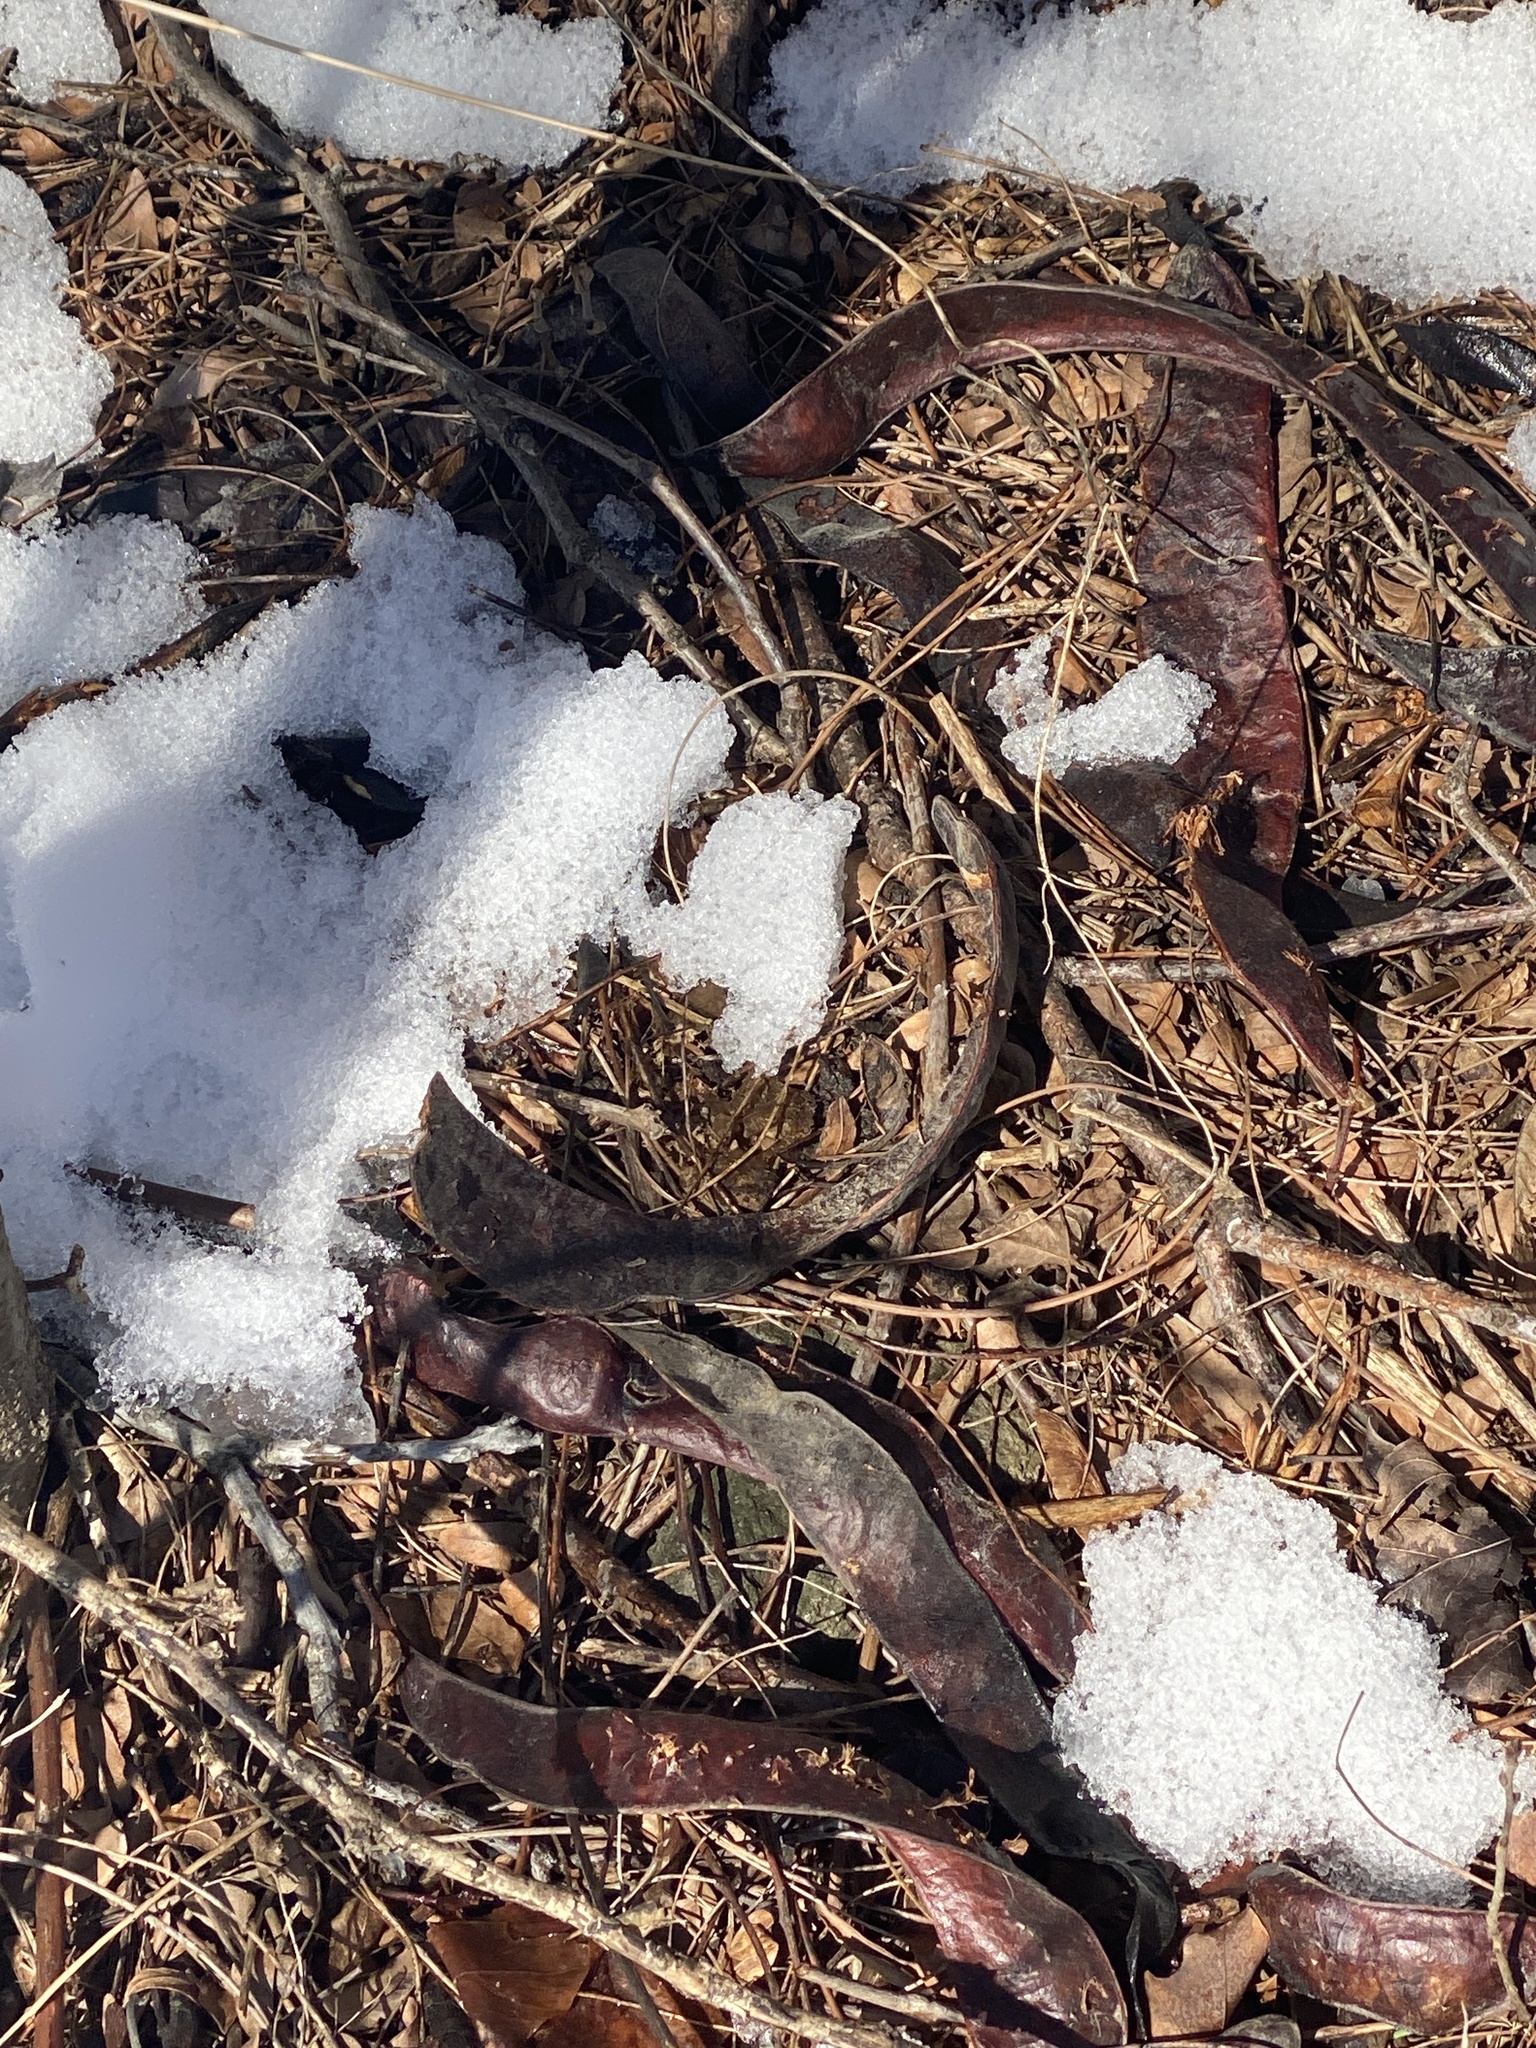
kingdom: Plantae
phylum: Tracheophyta
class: Magnoliopsida
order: Fabales
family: Fabaceae
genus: Gleditsia
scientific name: Gleditsia triacanthos
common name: Common honeylocust
